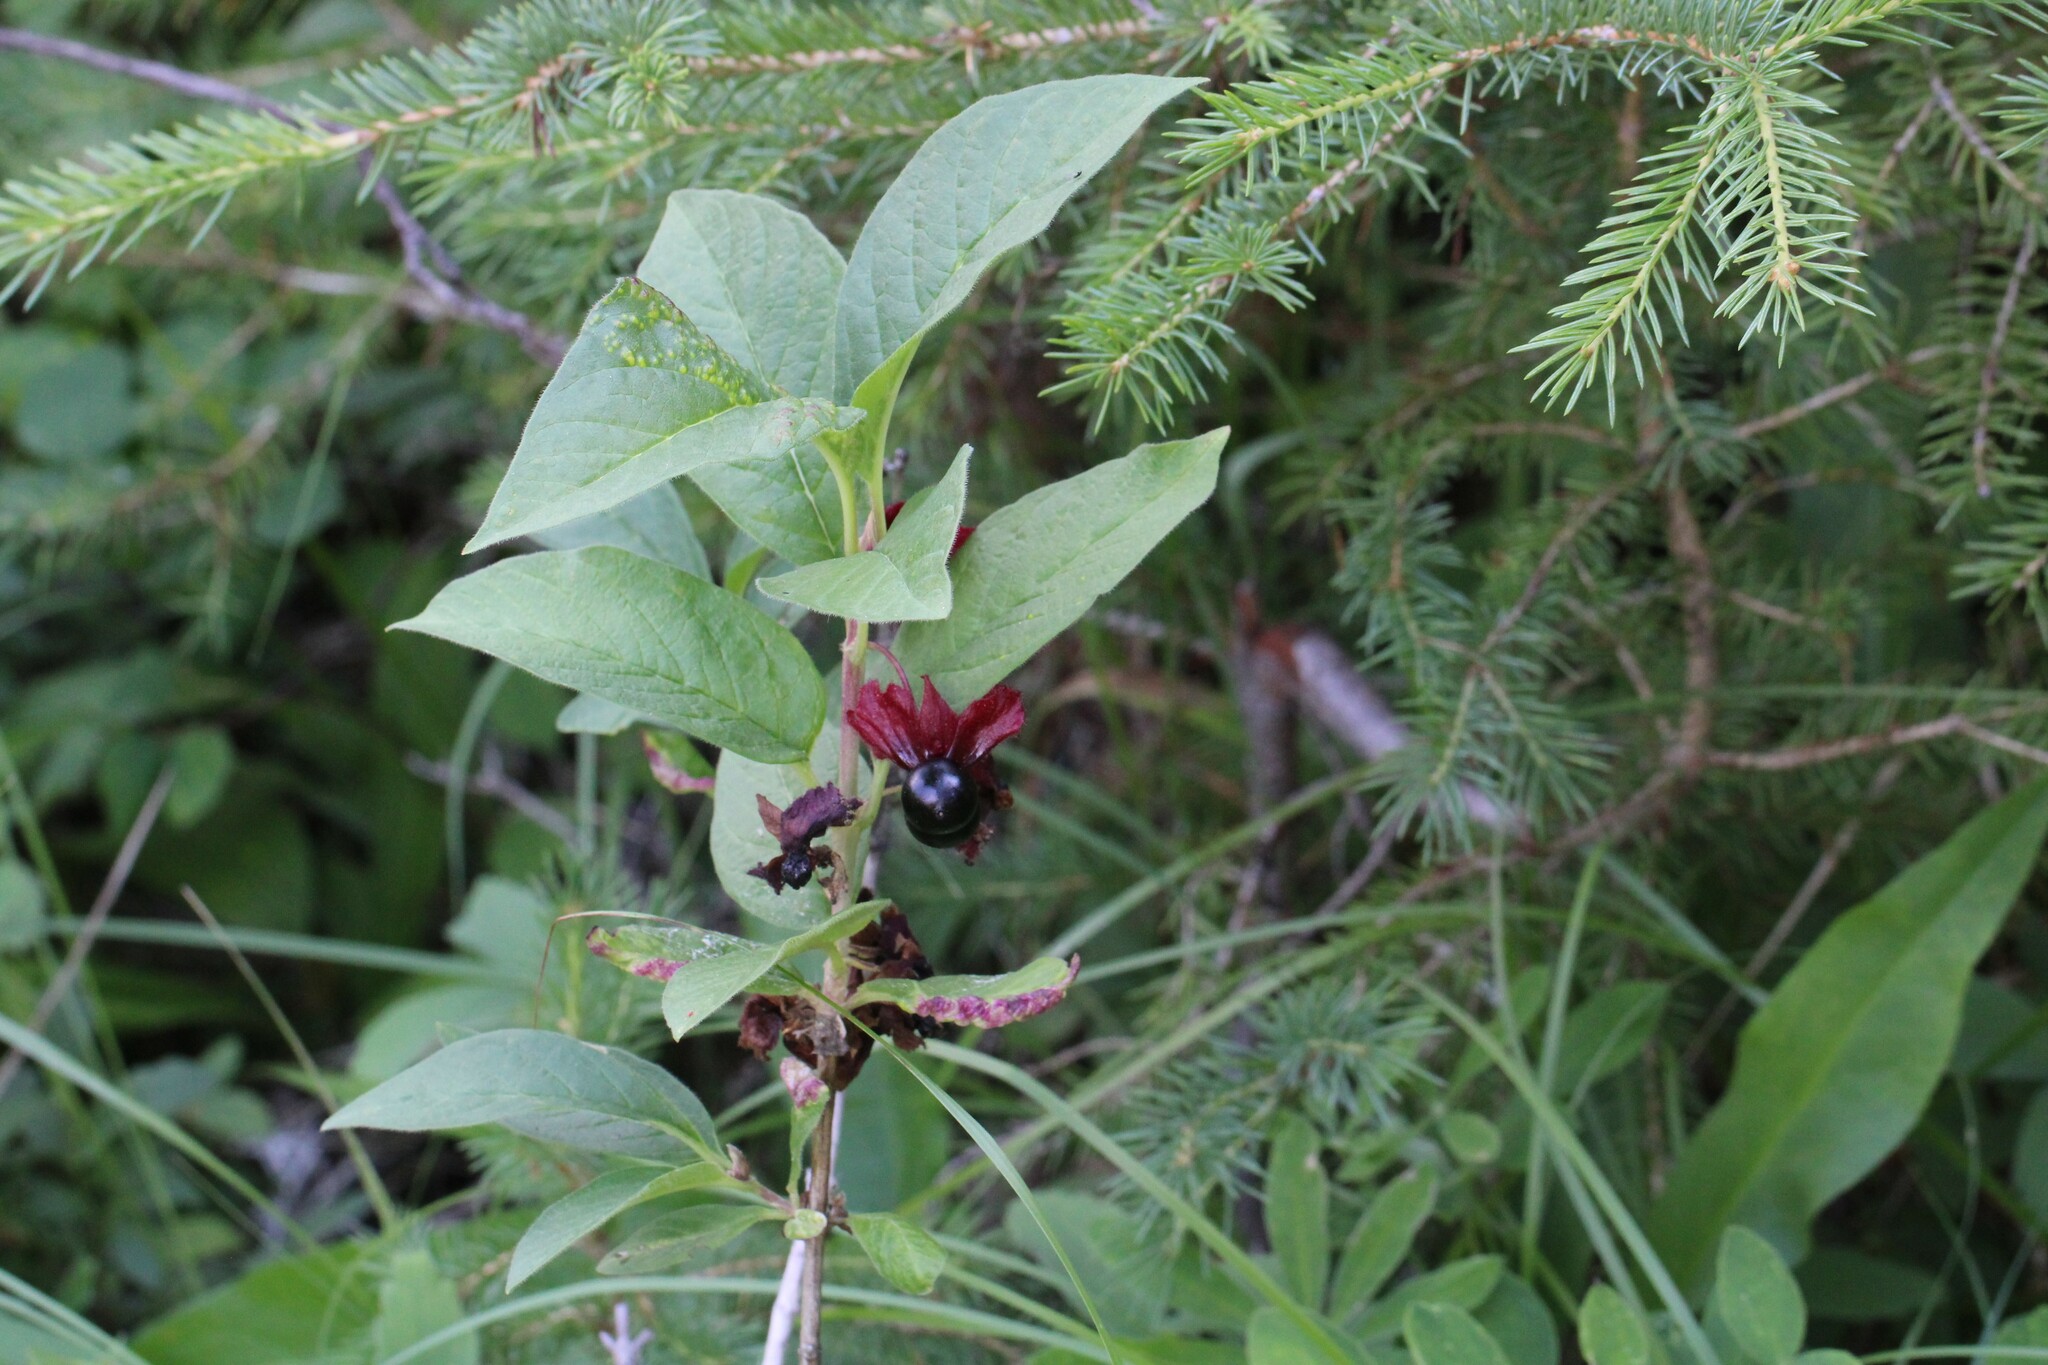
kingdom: Plantae
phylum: Tracheophyta
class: Magnoliopsida
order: Dipsacales
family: Caprifoliaceae
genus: Lonicera
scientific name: Lonicera involucrata
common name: Californian honeysuckle
